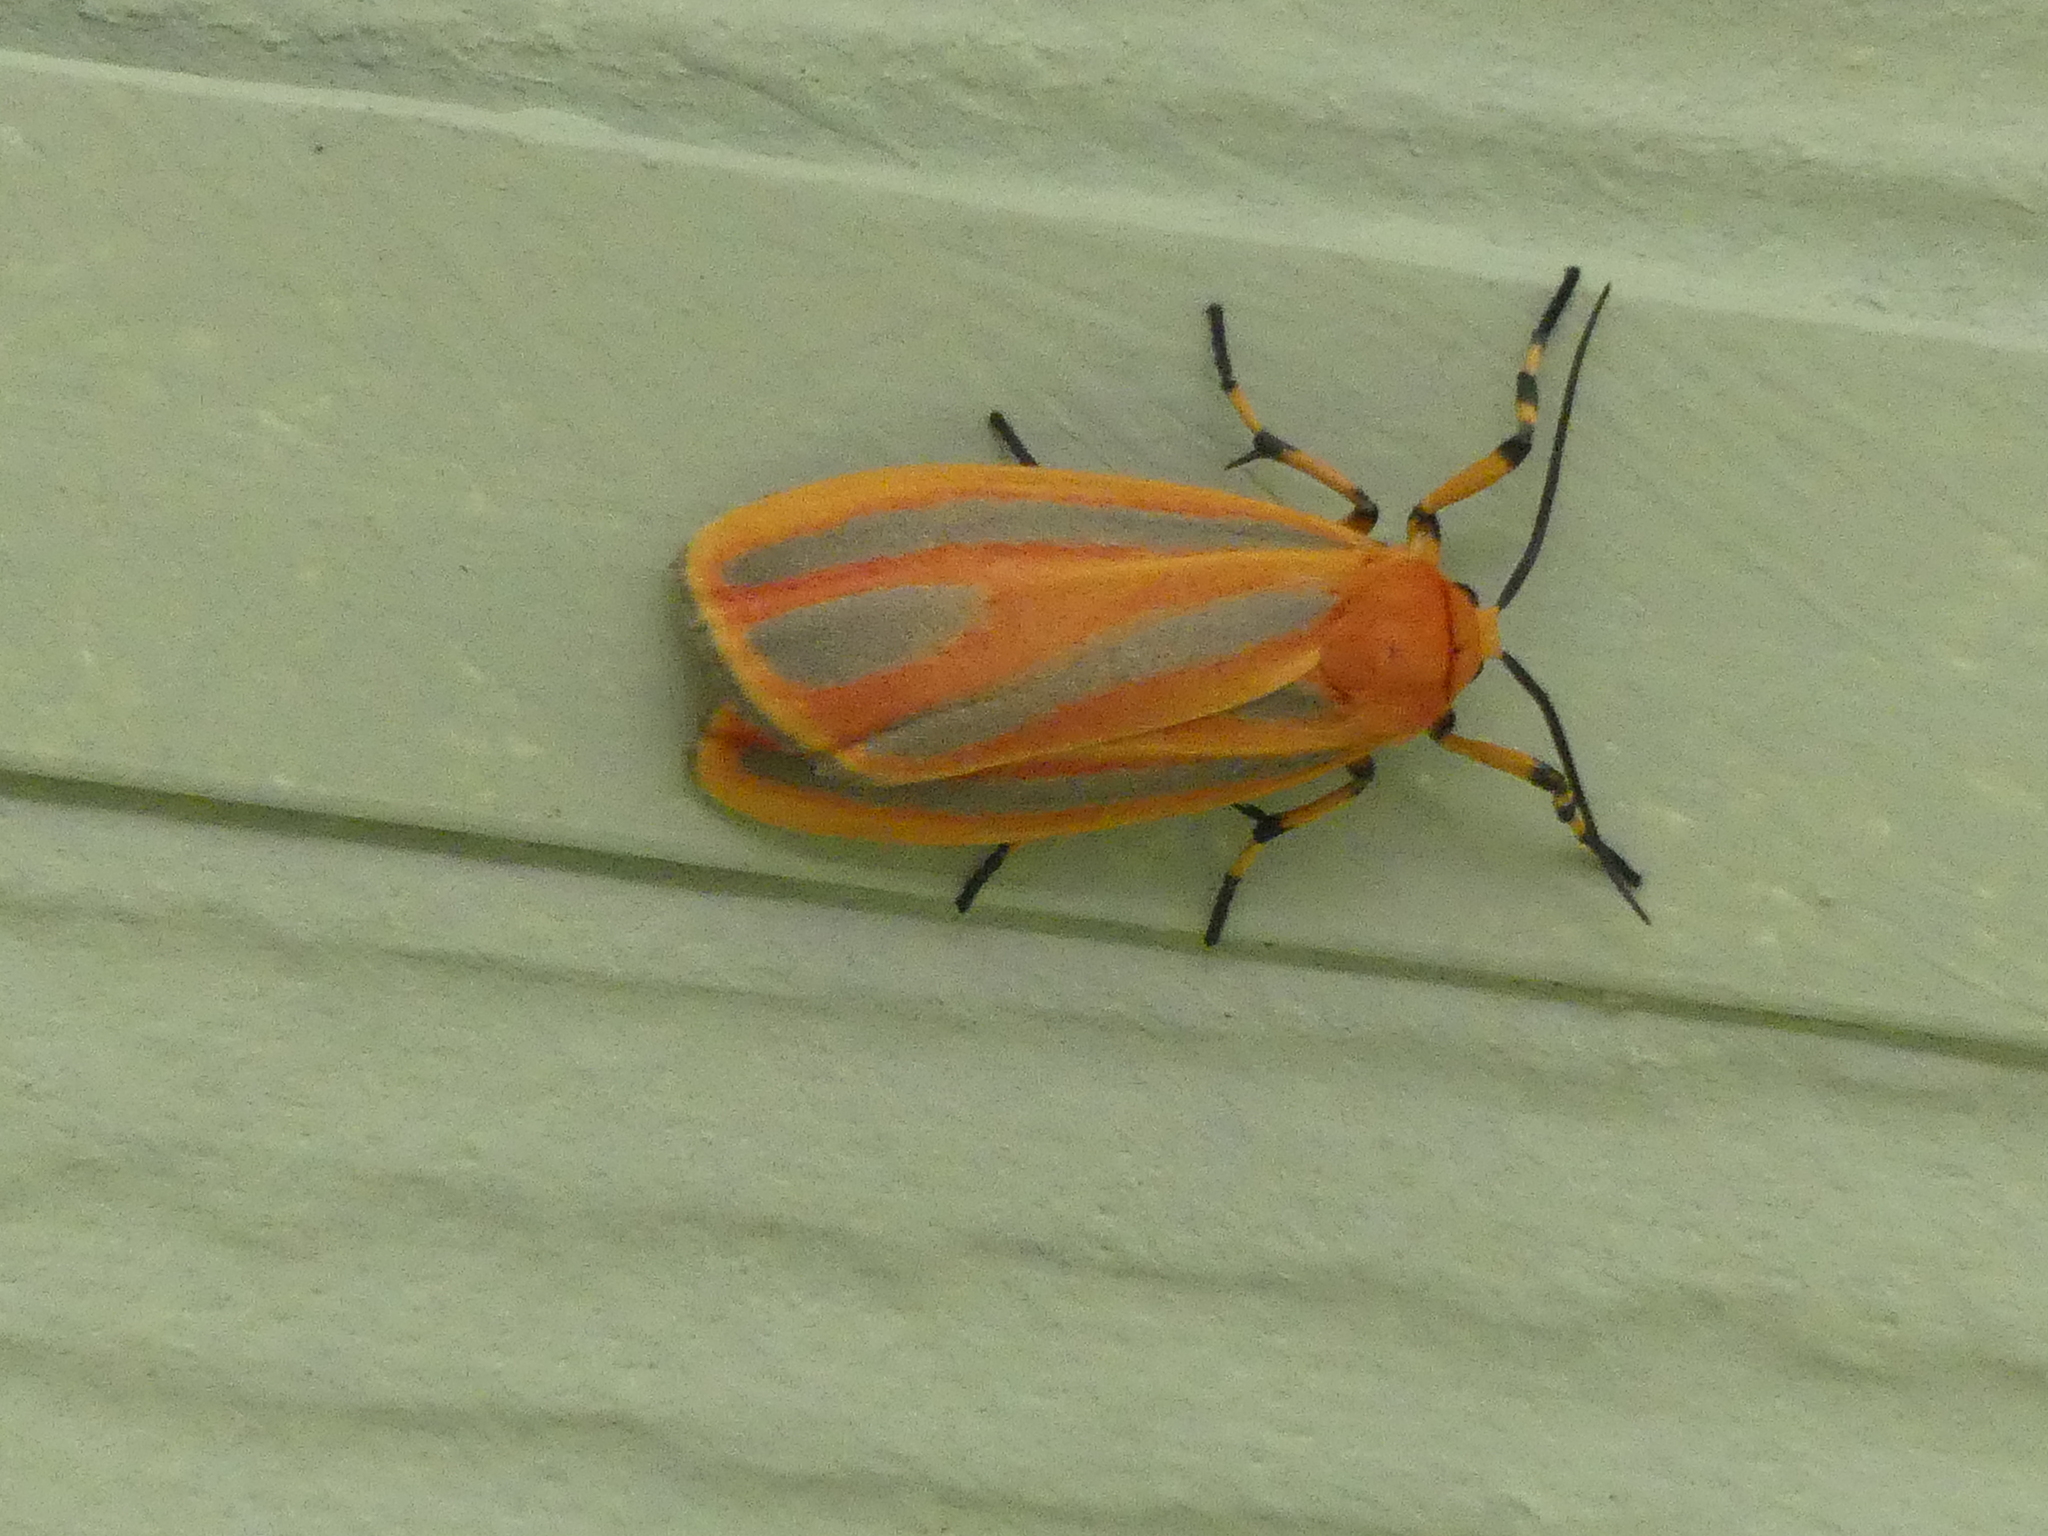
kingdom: Animalia
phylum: Arthropoda
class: Insecta
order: Lepidoptera
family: Erebidae
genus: Hypoprepia
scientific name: Hypoprepia miniata
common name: Scarlet-winged lichen moth
